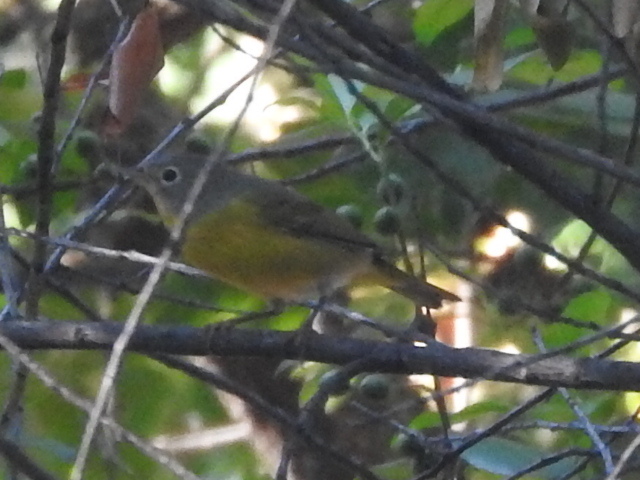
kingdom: Animalia
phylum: Chordata
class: Aves
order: Passeriformes
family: Parulidae
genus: Leiothlypis
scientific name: Leiothlypis ruficapilla
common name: Nashville warbler
